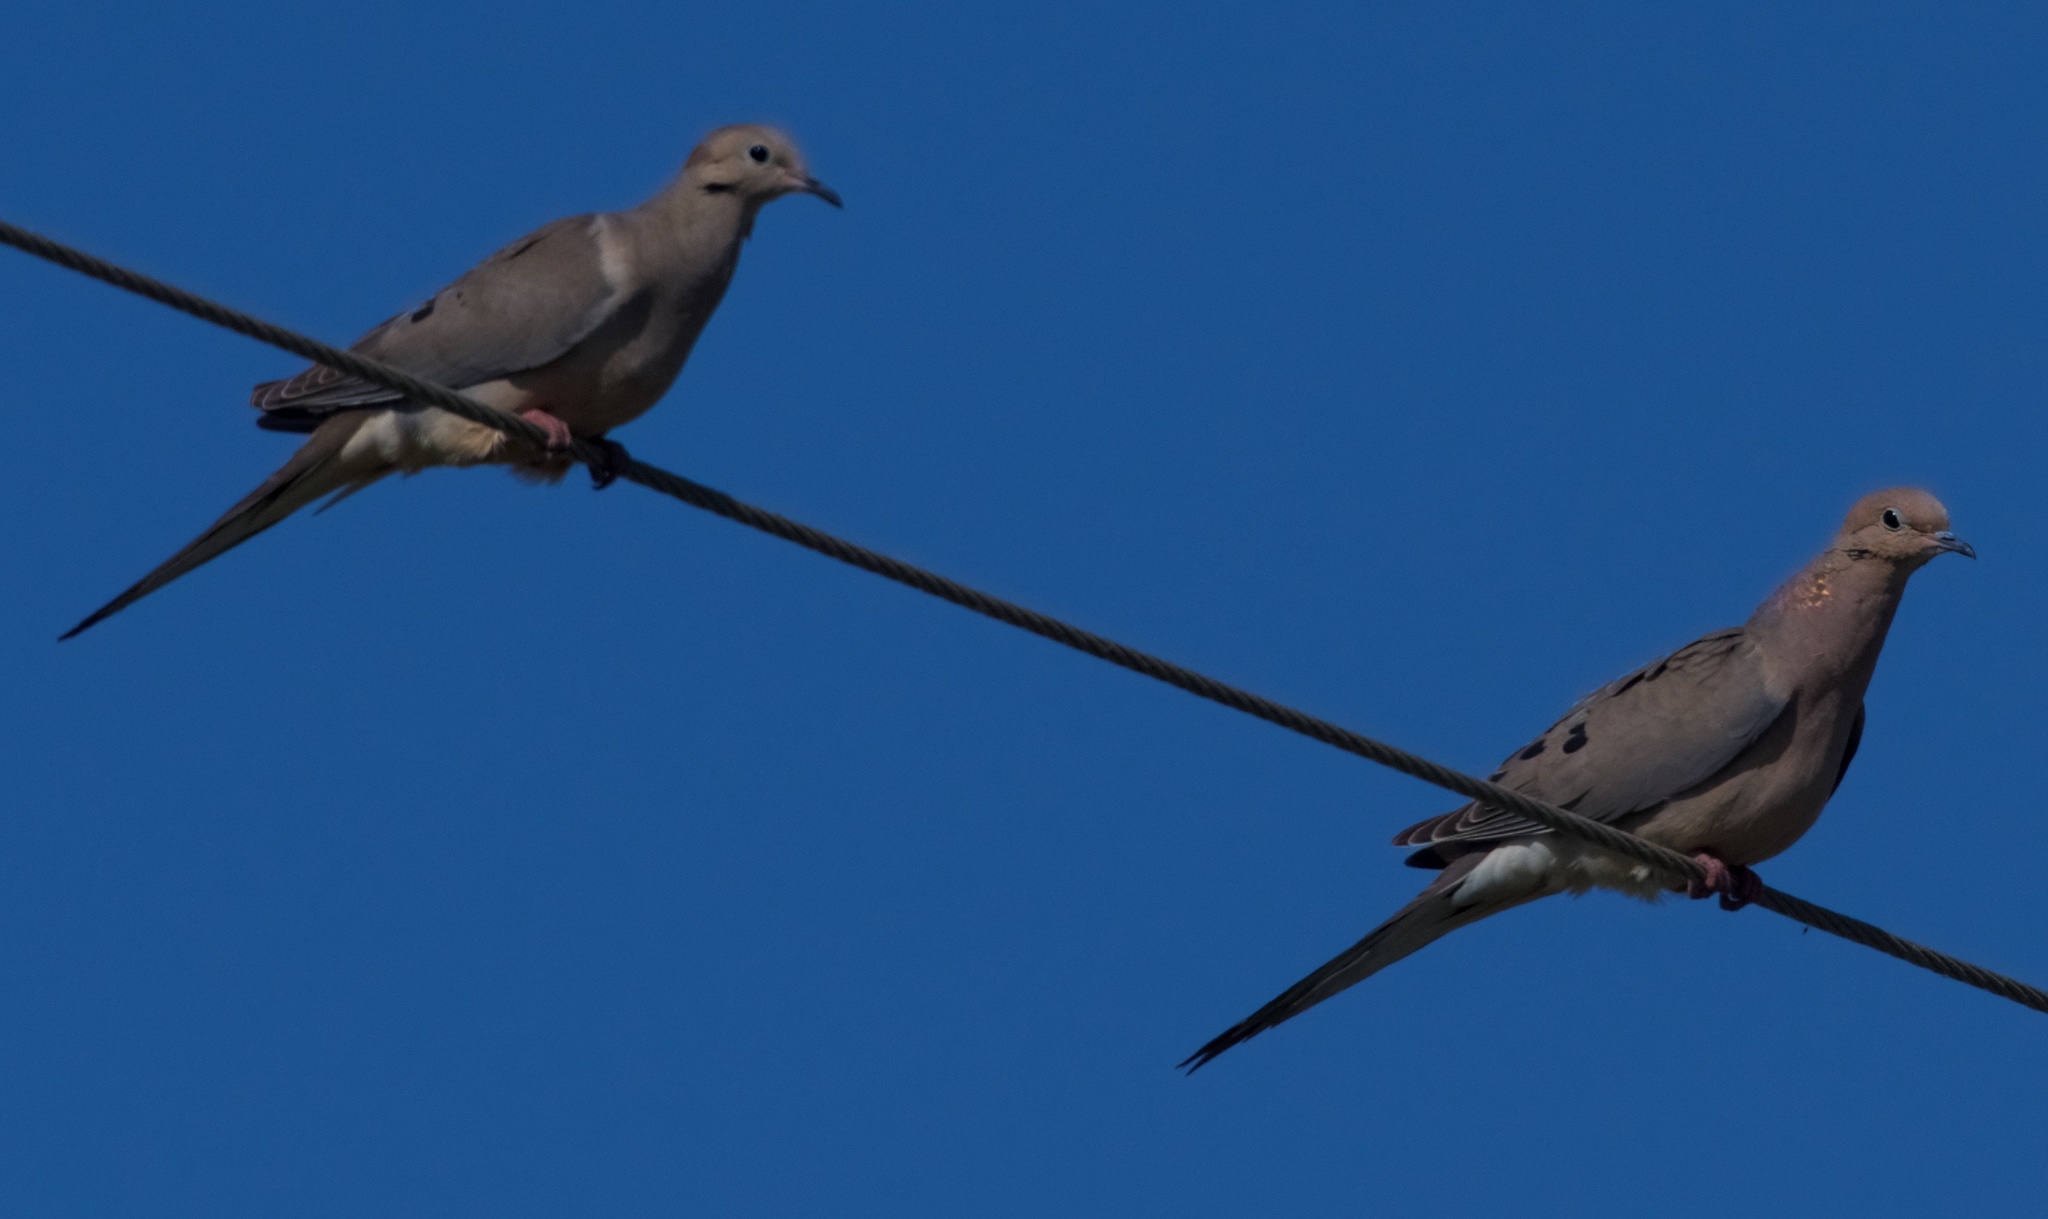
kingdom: Animalia
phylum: Chordata
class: Aves
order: Columbiformes
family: Columbidae
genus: Zenaida
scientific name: Zenaida macroura
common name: Mourning dove
